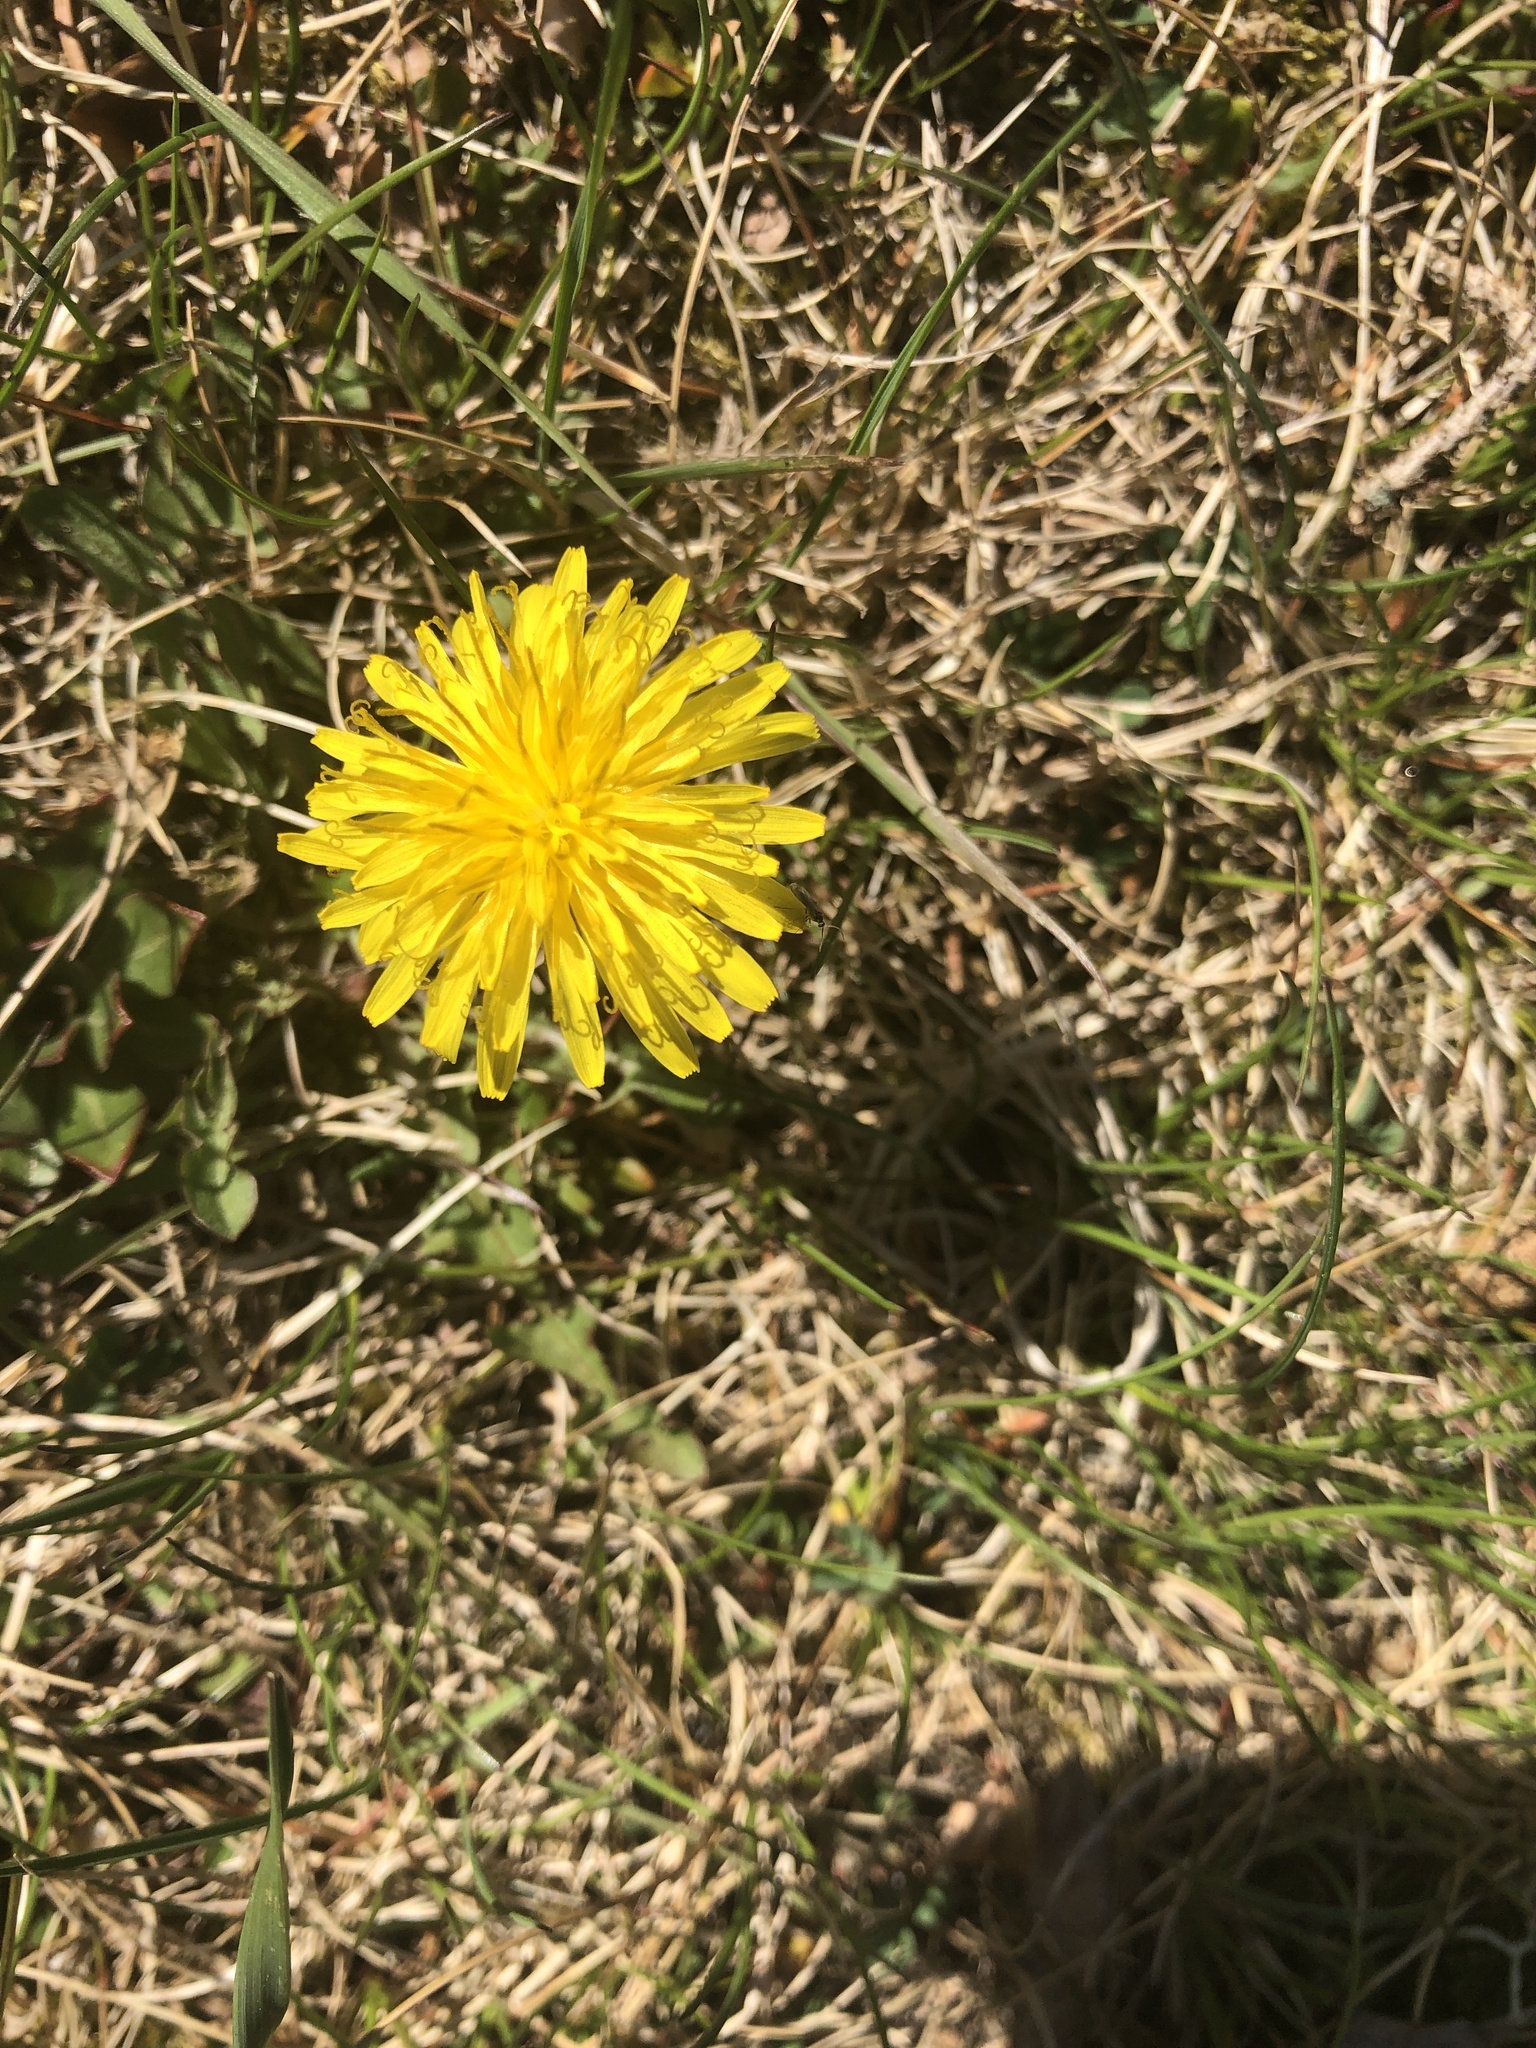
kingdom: Plantae
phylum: Tracheophyta
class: Magnoliopsida
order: Asterales
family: Asteraceae
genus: Taraxacum
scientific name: Taraxacum officinale
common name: Common dandelion
